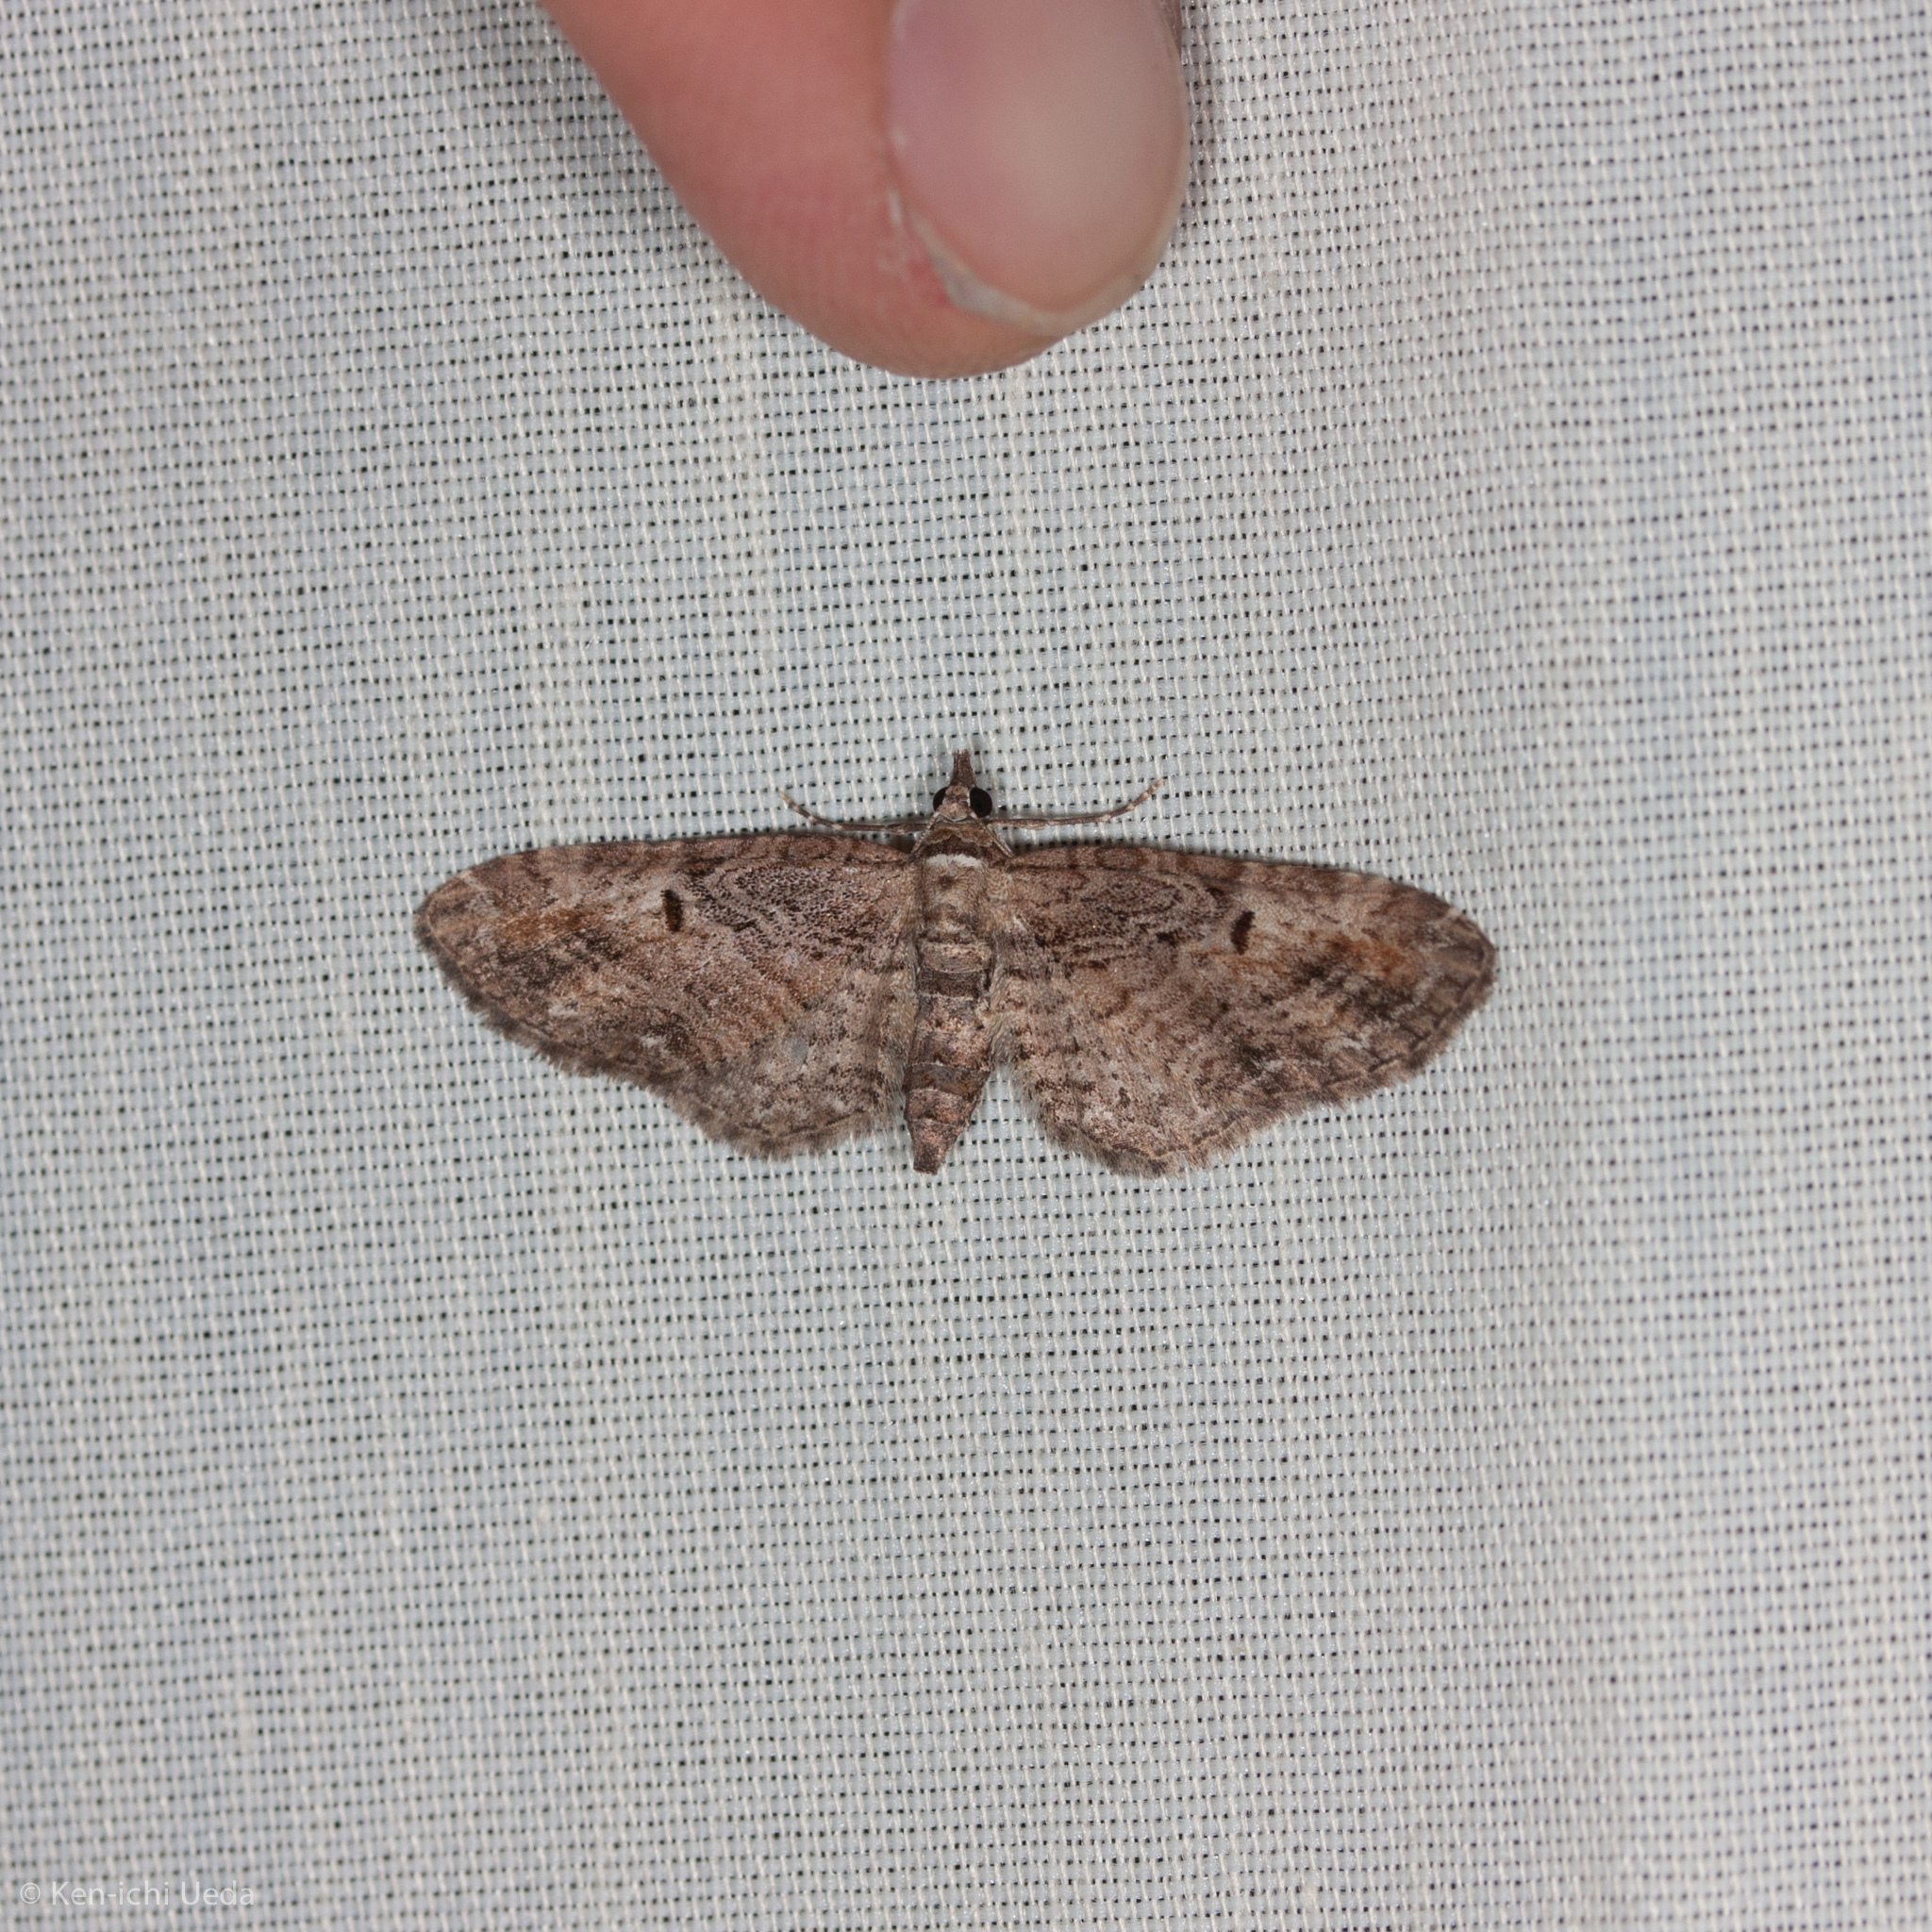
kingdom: Animalia
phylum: Arthropoda
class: Insecta
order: Lepidoptera
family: Geometridae
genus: Eupithecia
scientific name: Eupithecia graefii
